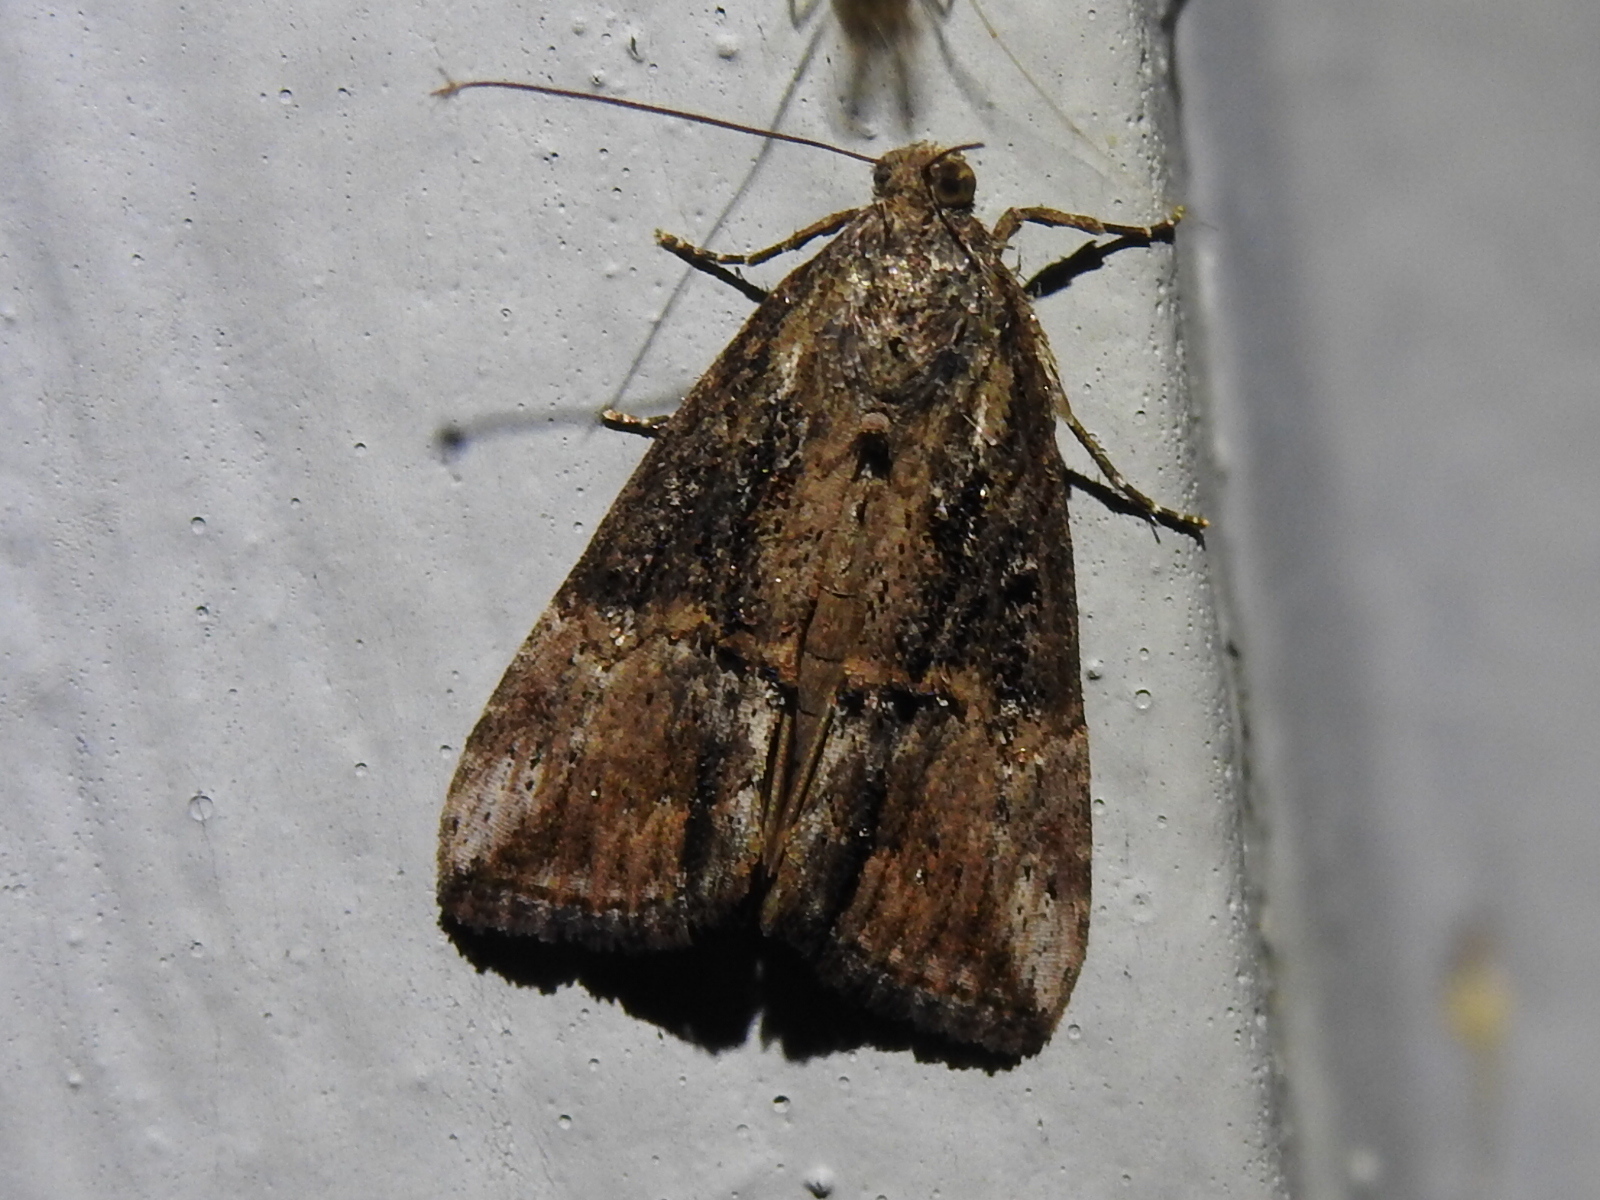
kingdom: Animalia
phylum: Arthropoda
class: Insecta
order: Lepidoptera
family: Erebidae
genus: Hypena
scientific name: Hypena scabra
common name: Green cloverworm
